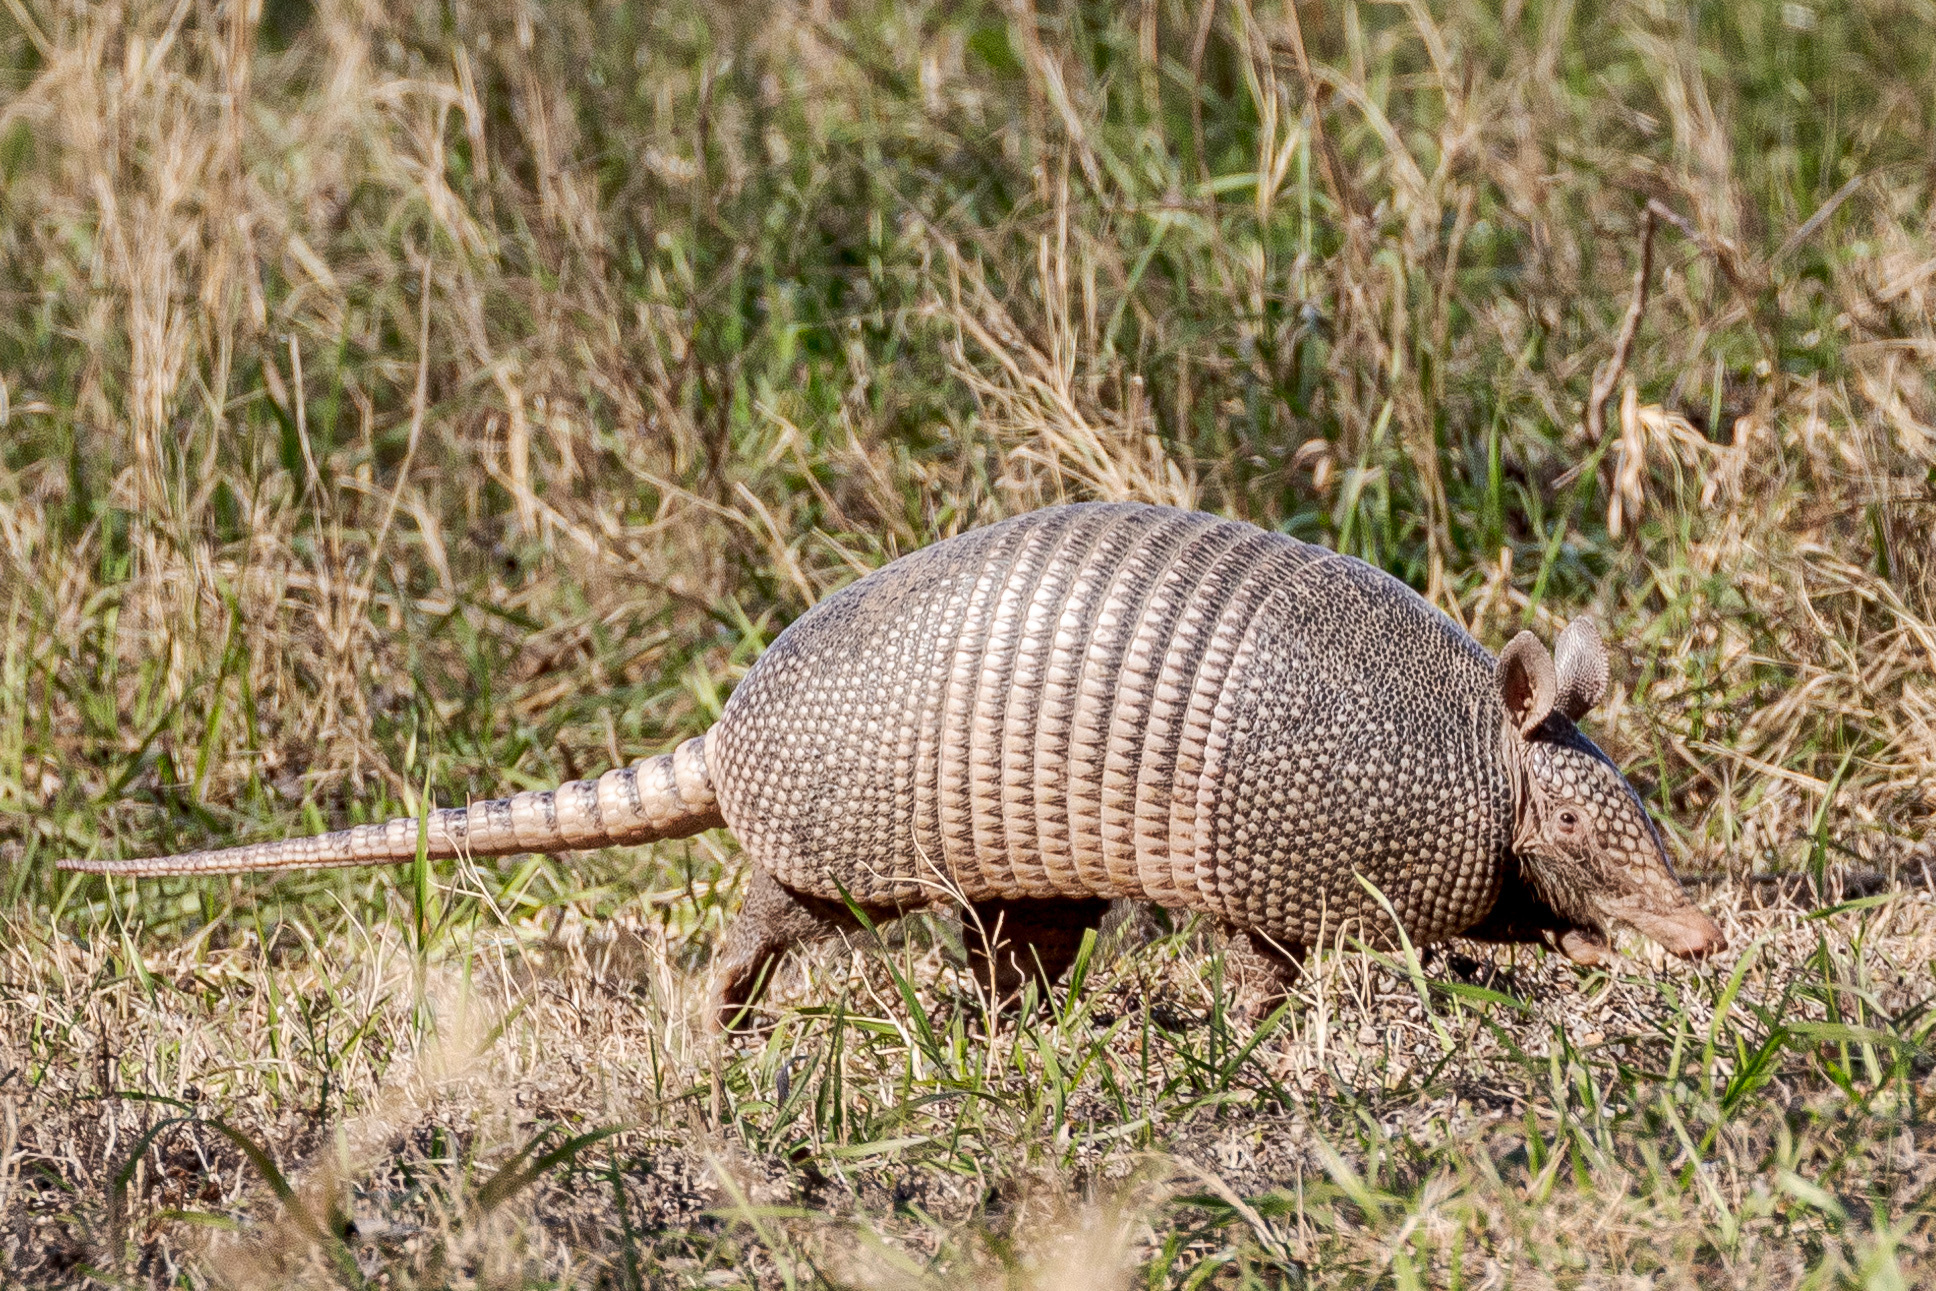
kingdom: Animalia
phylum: Chordata
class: Mammalia
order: Cingulata
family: Dasypodidae
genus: Dasypus
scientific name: Dasypus novemcinctus
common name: Nine-banded armadillo
